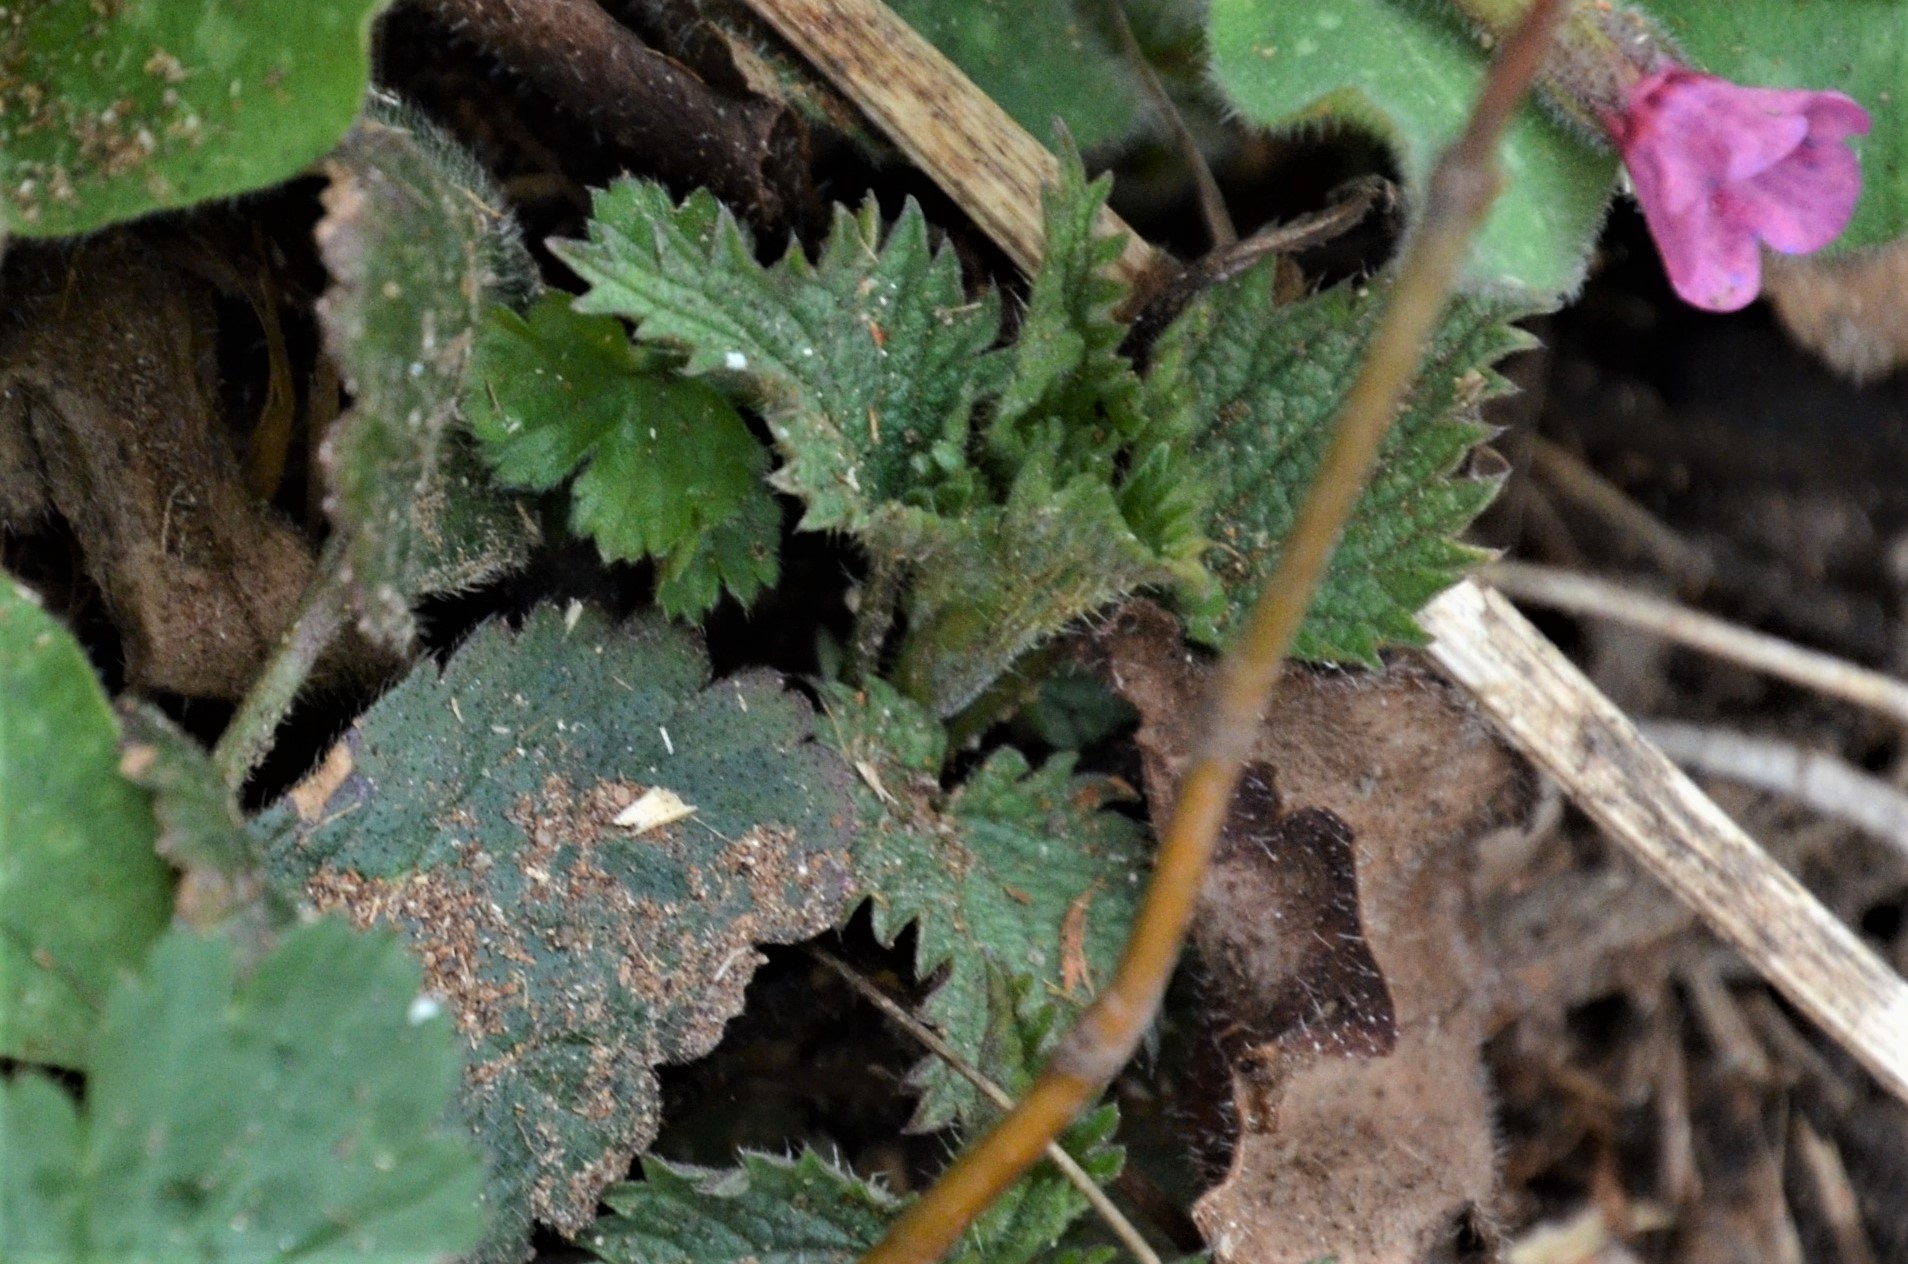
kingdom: Plantae
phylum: Tracheophyta
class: Magnoliopsida
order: Rosales
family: Urticaceae
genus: Urtica
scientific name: Urtica dioica
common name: Common nettle
